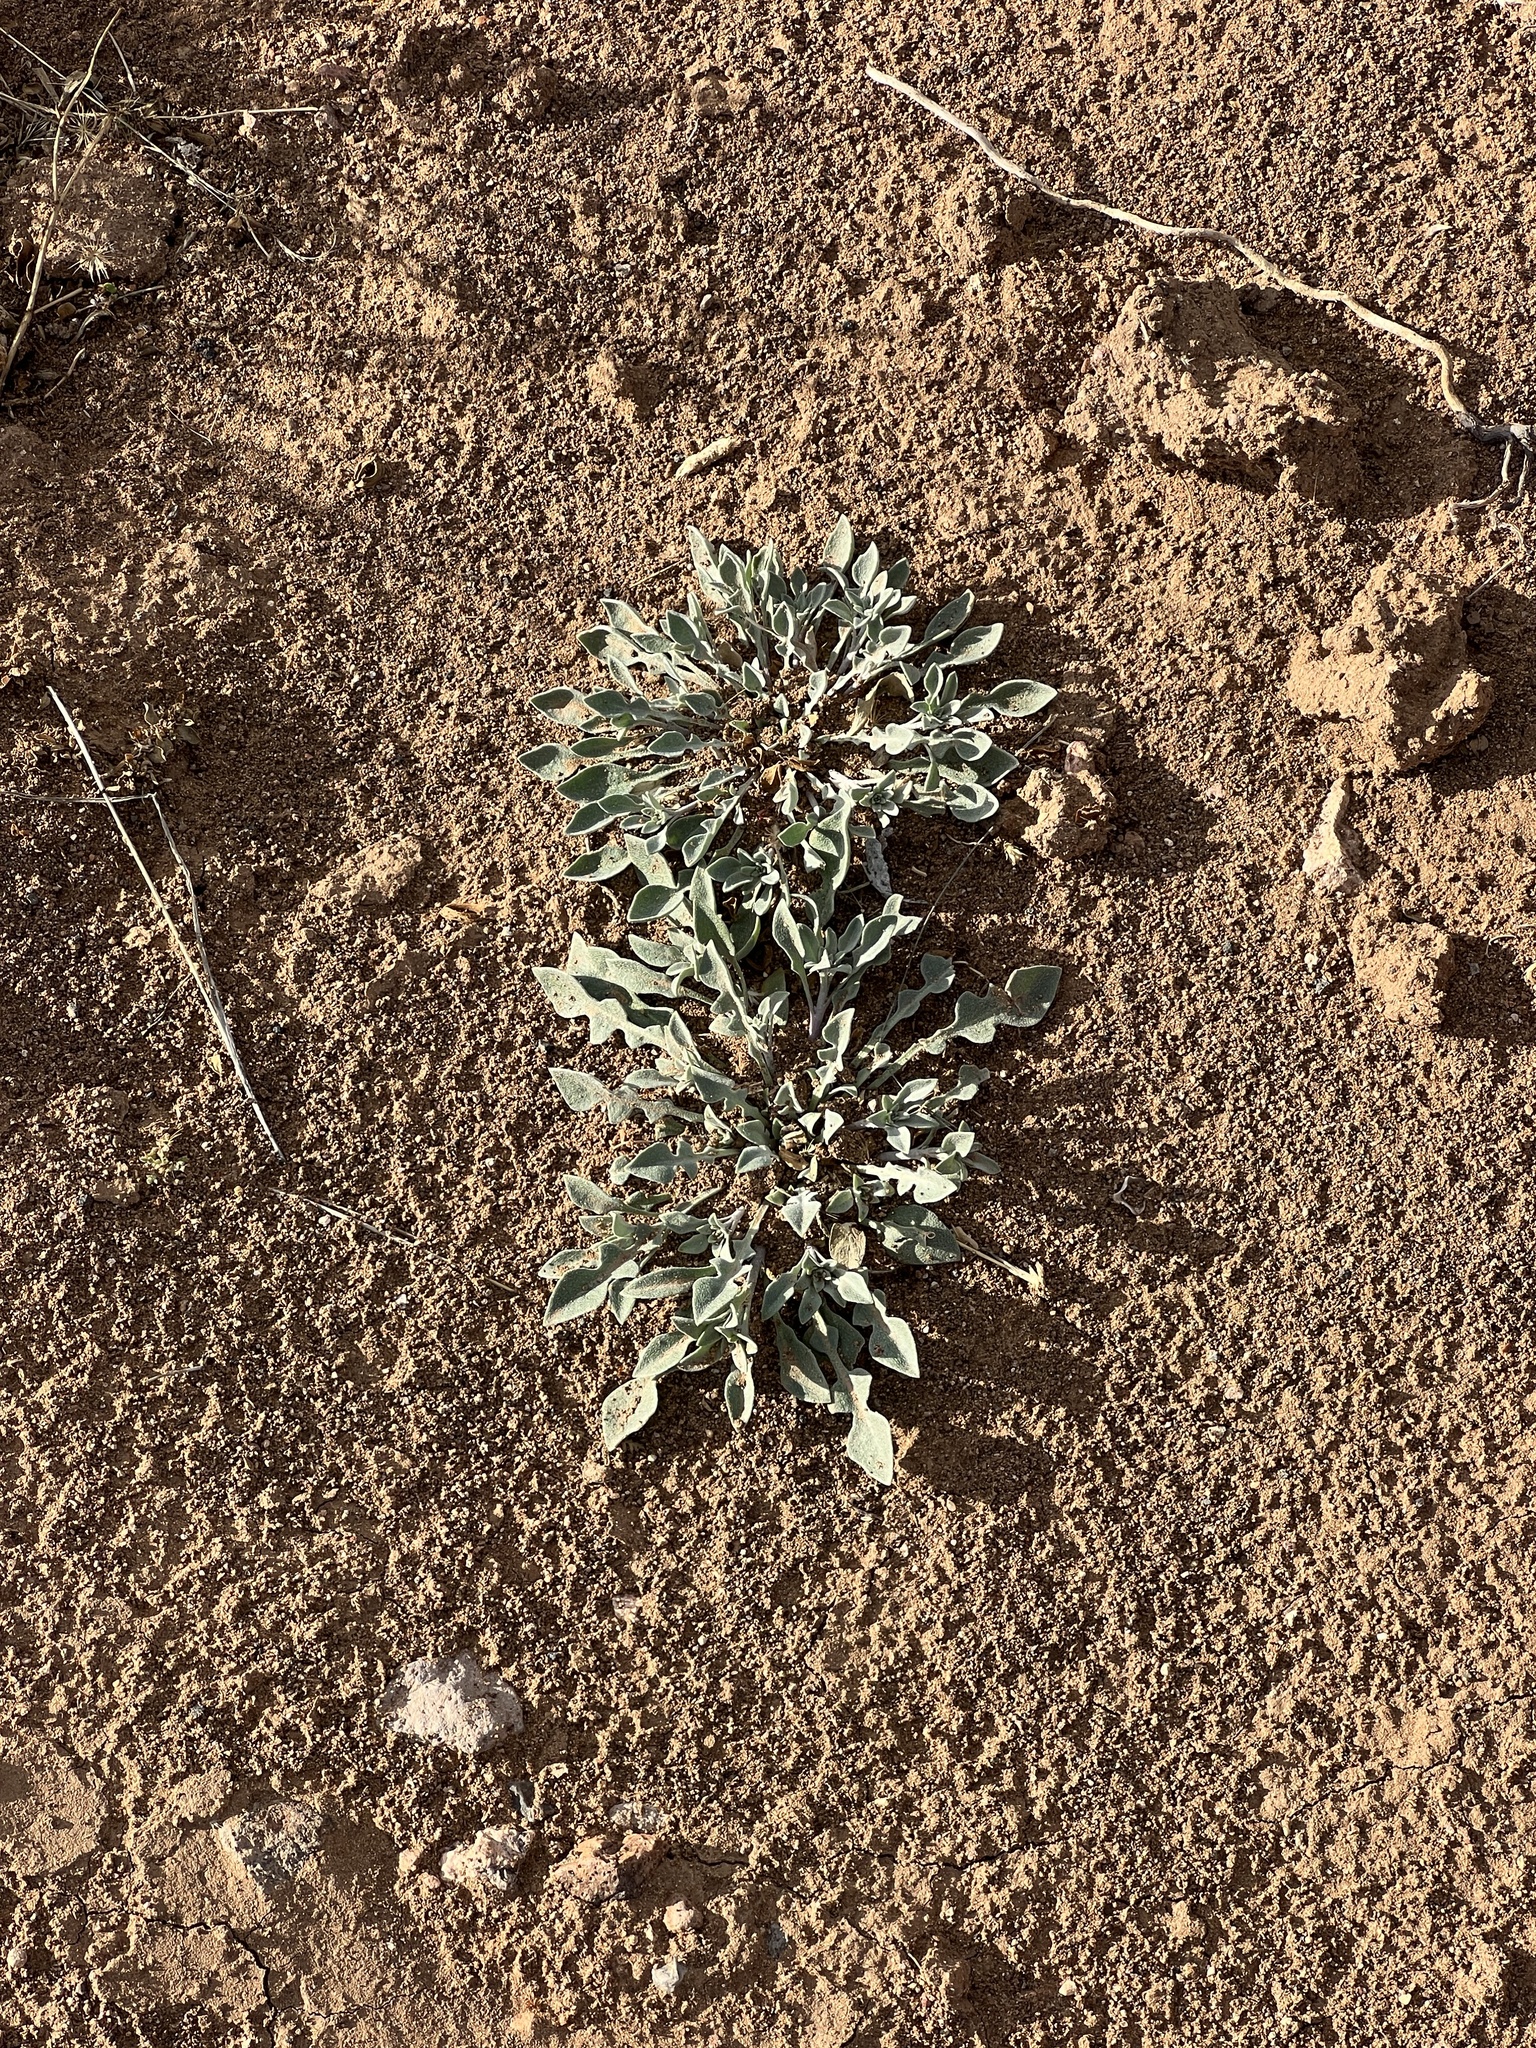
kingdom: Plantae
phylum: Tracheophyta
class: Magnoliopsida
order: Brassicales
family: Brassicaceae
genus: Physaria
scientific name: Physaria gordonii
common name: Gordon's bladderpod
